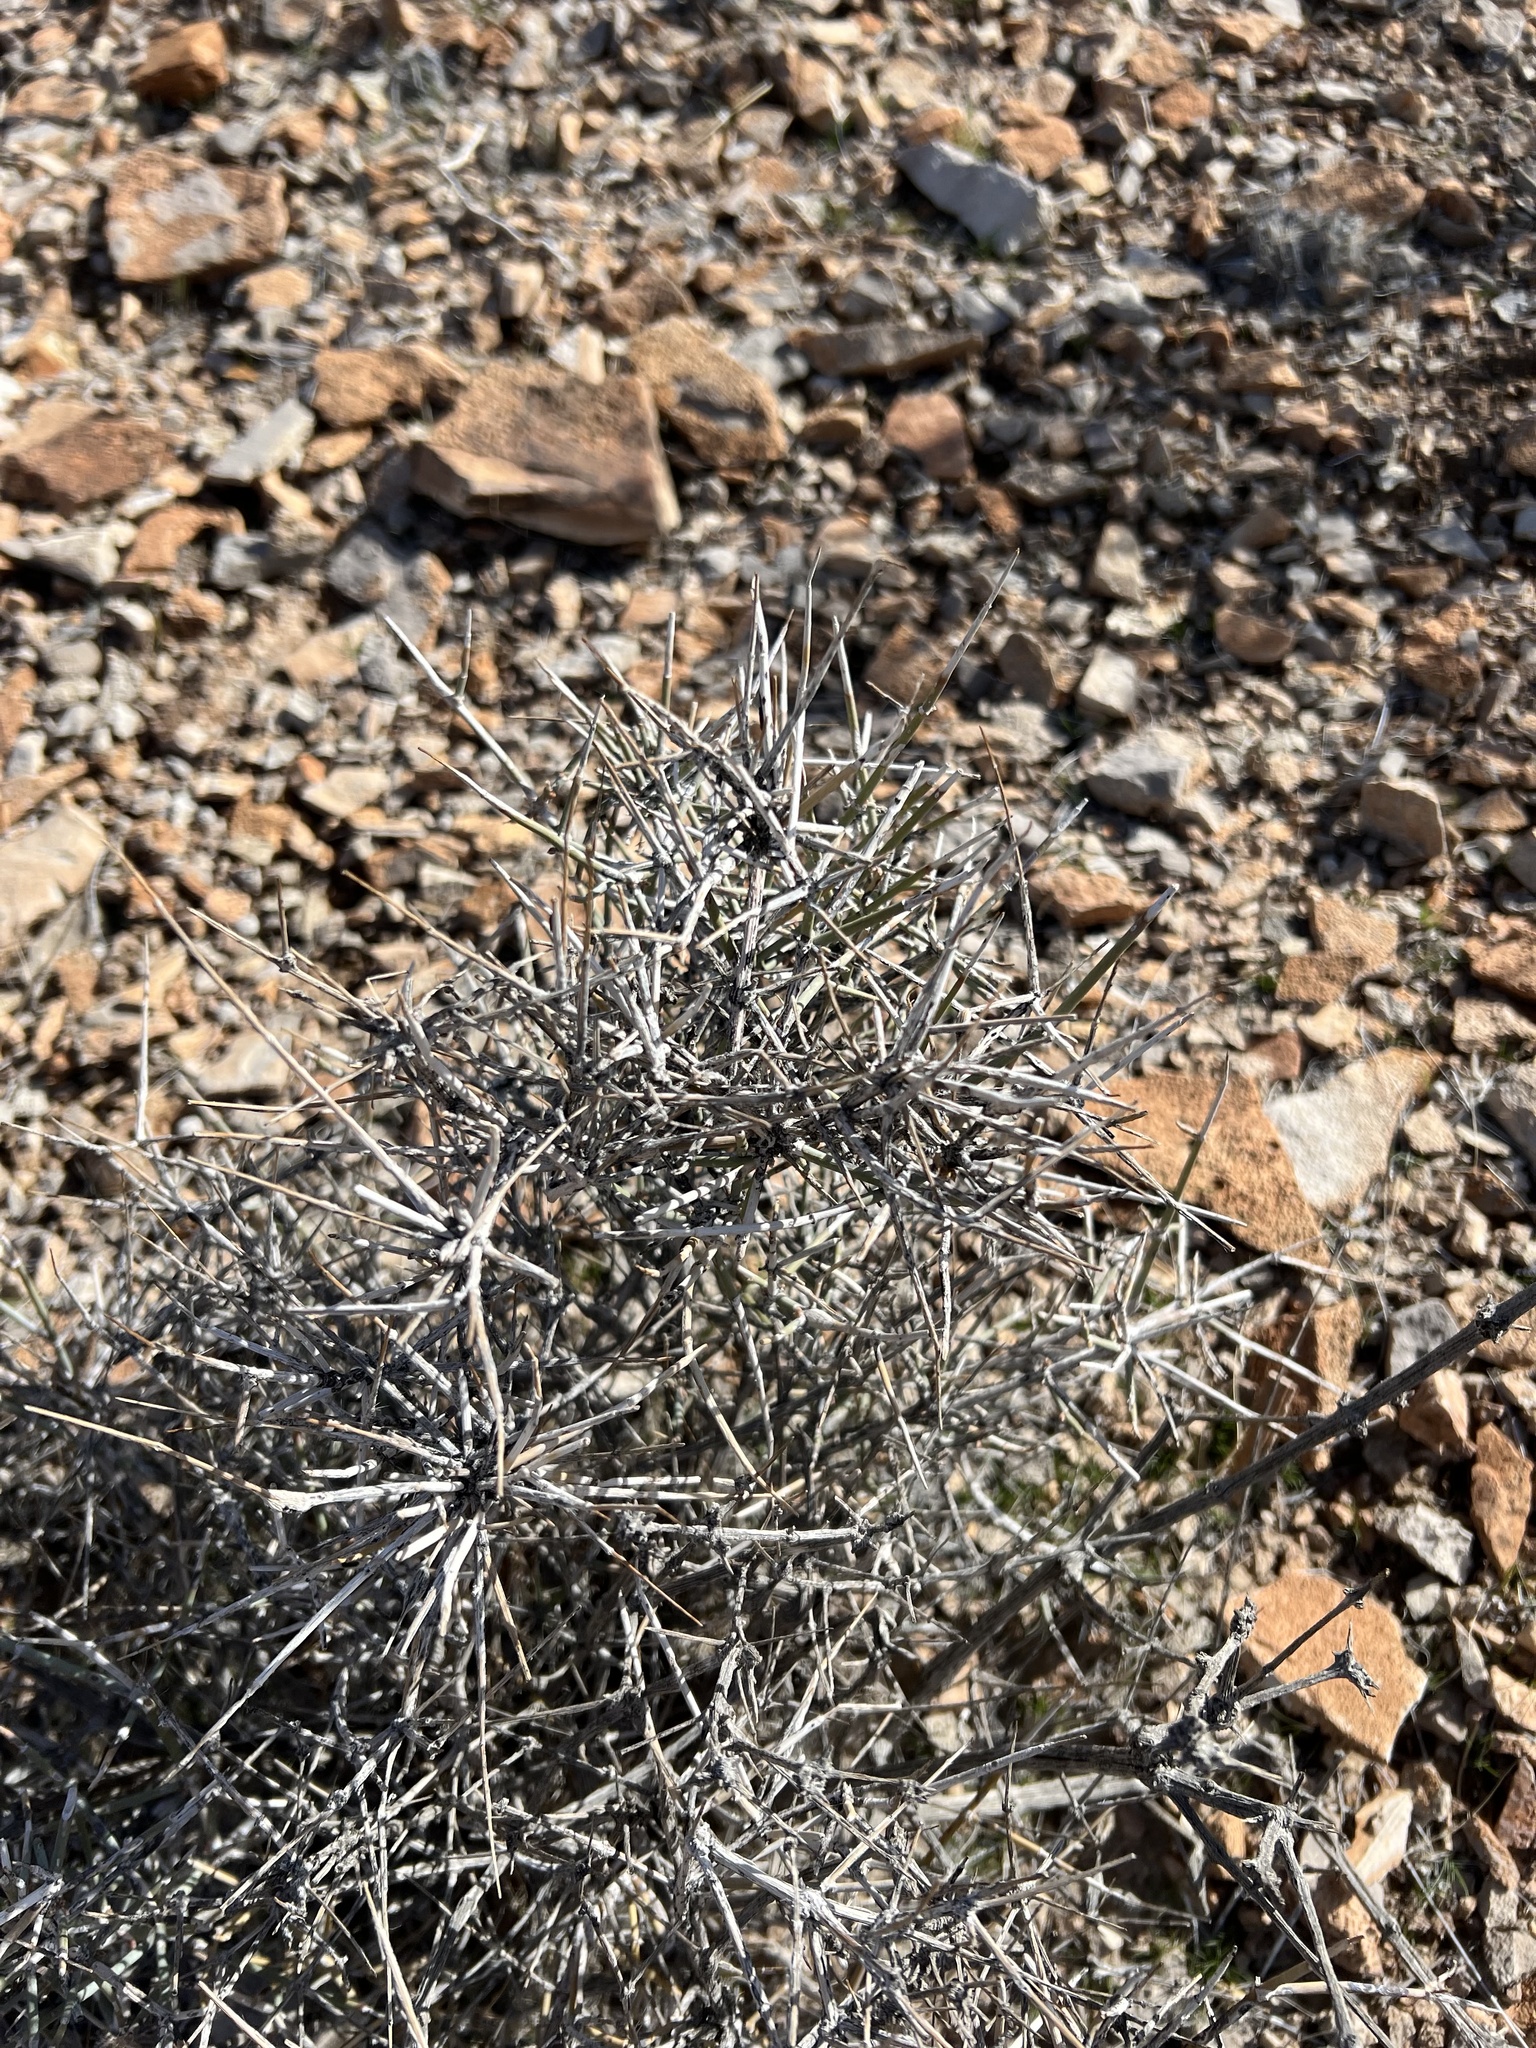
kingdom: Plantae
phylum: Tracheophyta
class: Gnetopsida
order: Ephedrales
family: Ephedraceae
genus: Ephedra
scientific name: Ephedra nevadensis
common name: Gray ephedra
